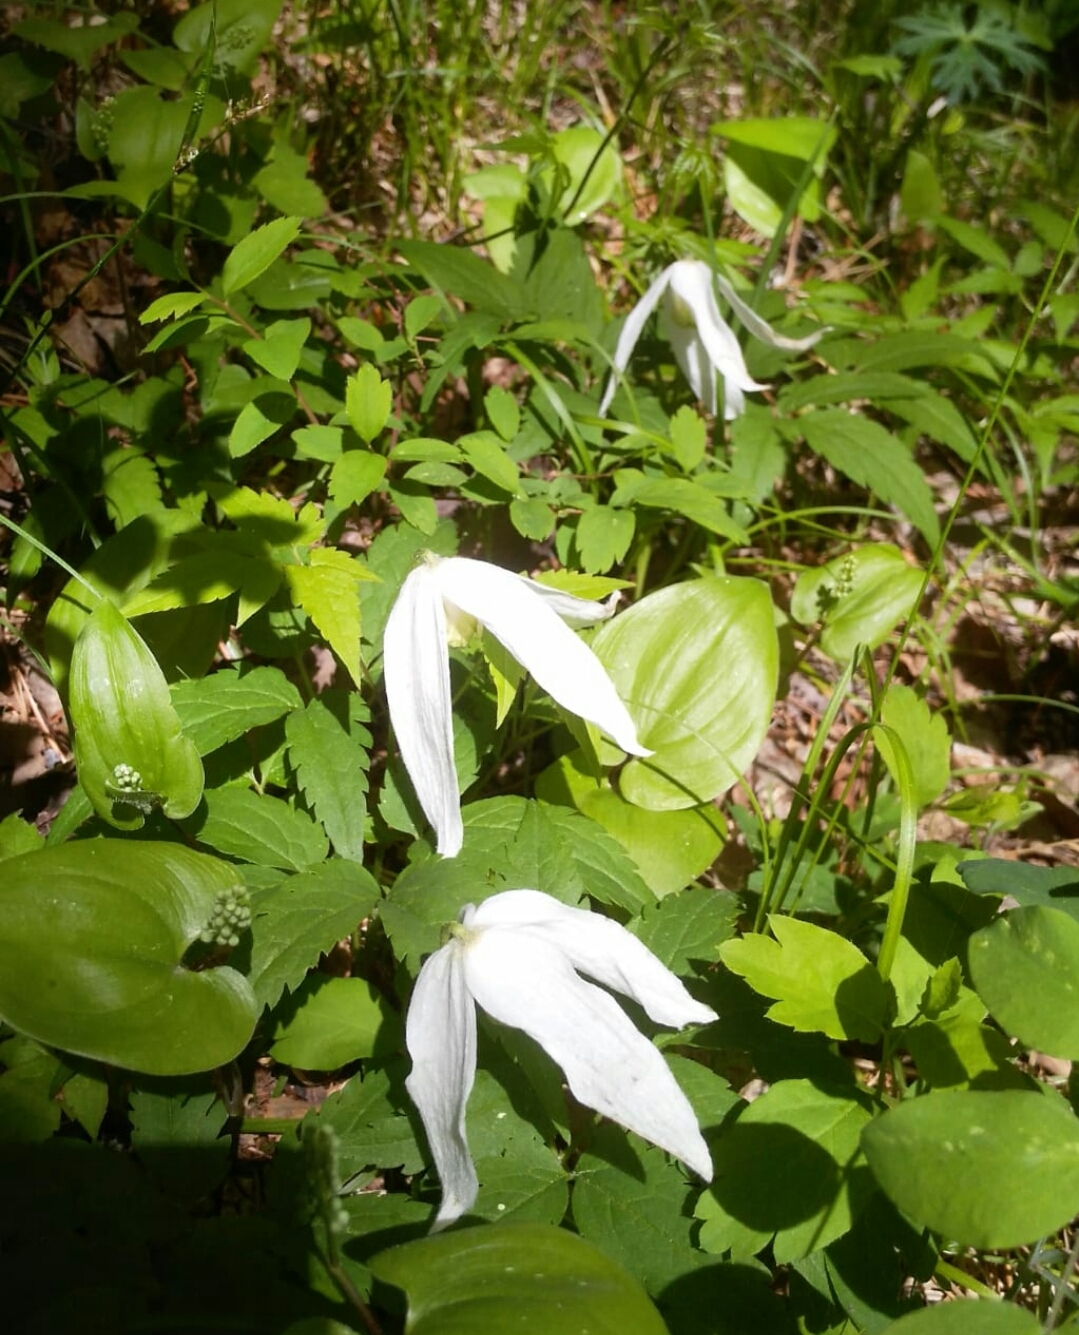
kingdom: Plantae
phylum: Tracheophyta
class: Magnoliopsida
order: Ranunculales
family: Ranunculaceae
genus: Clematis
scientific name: Clematis sibirica
